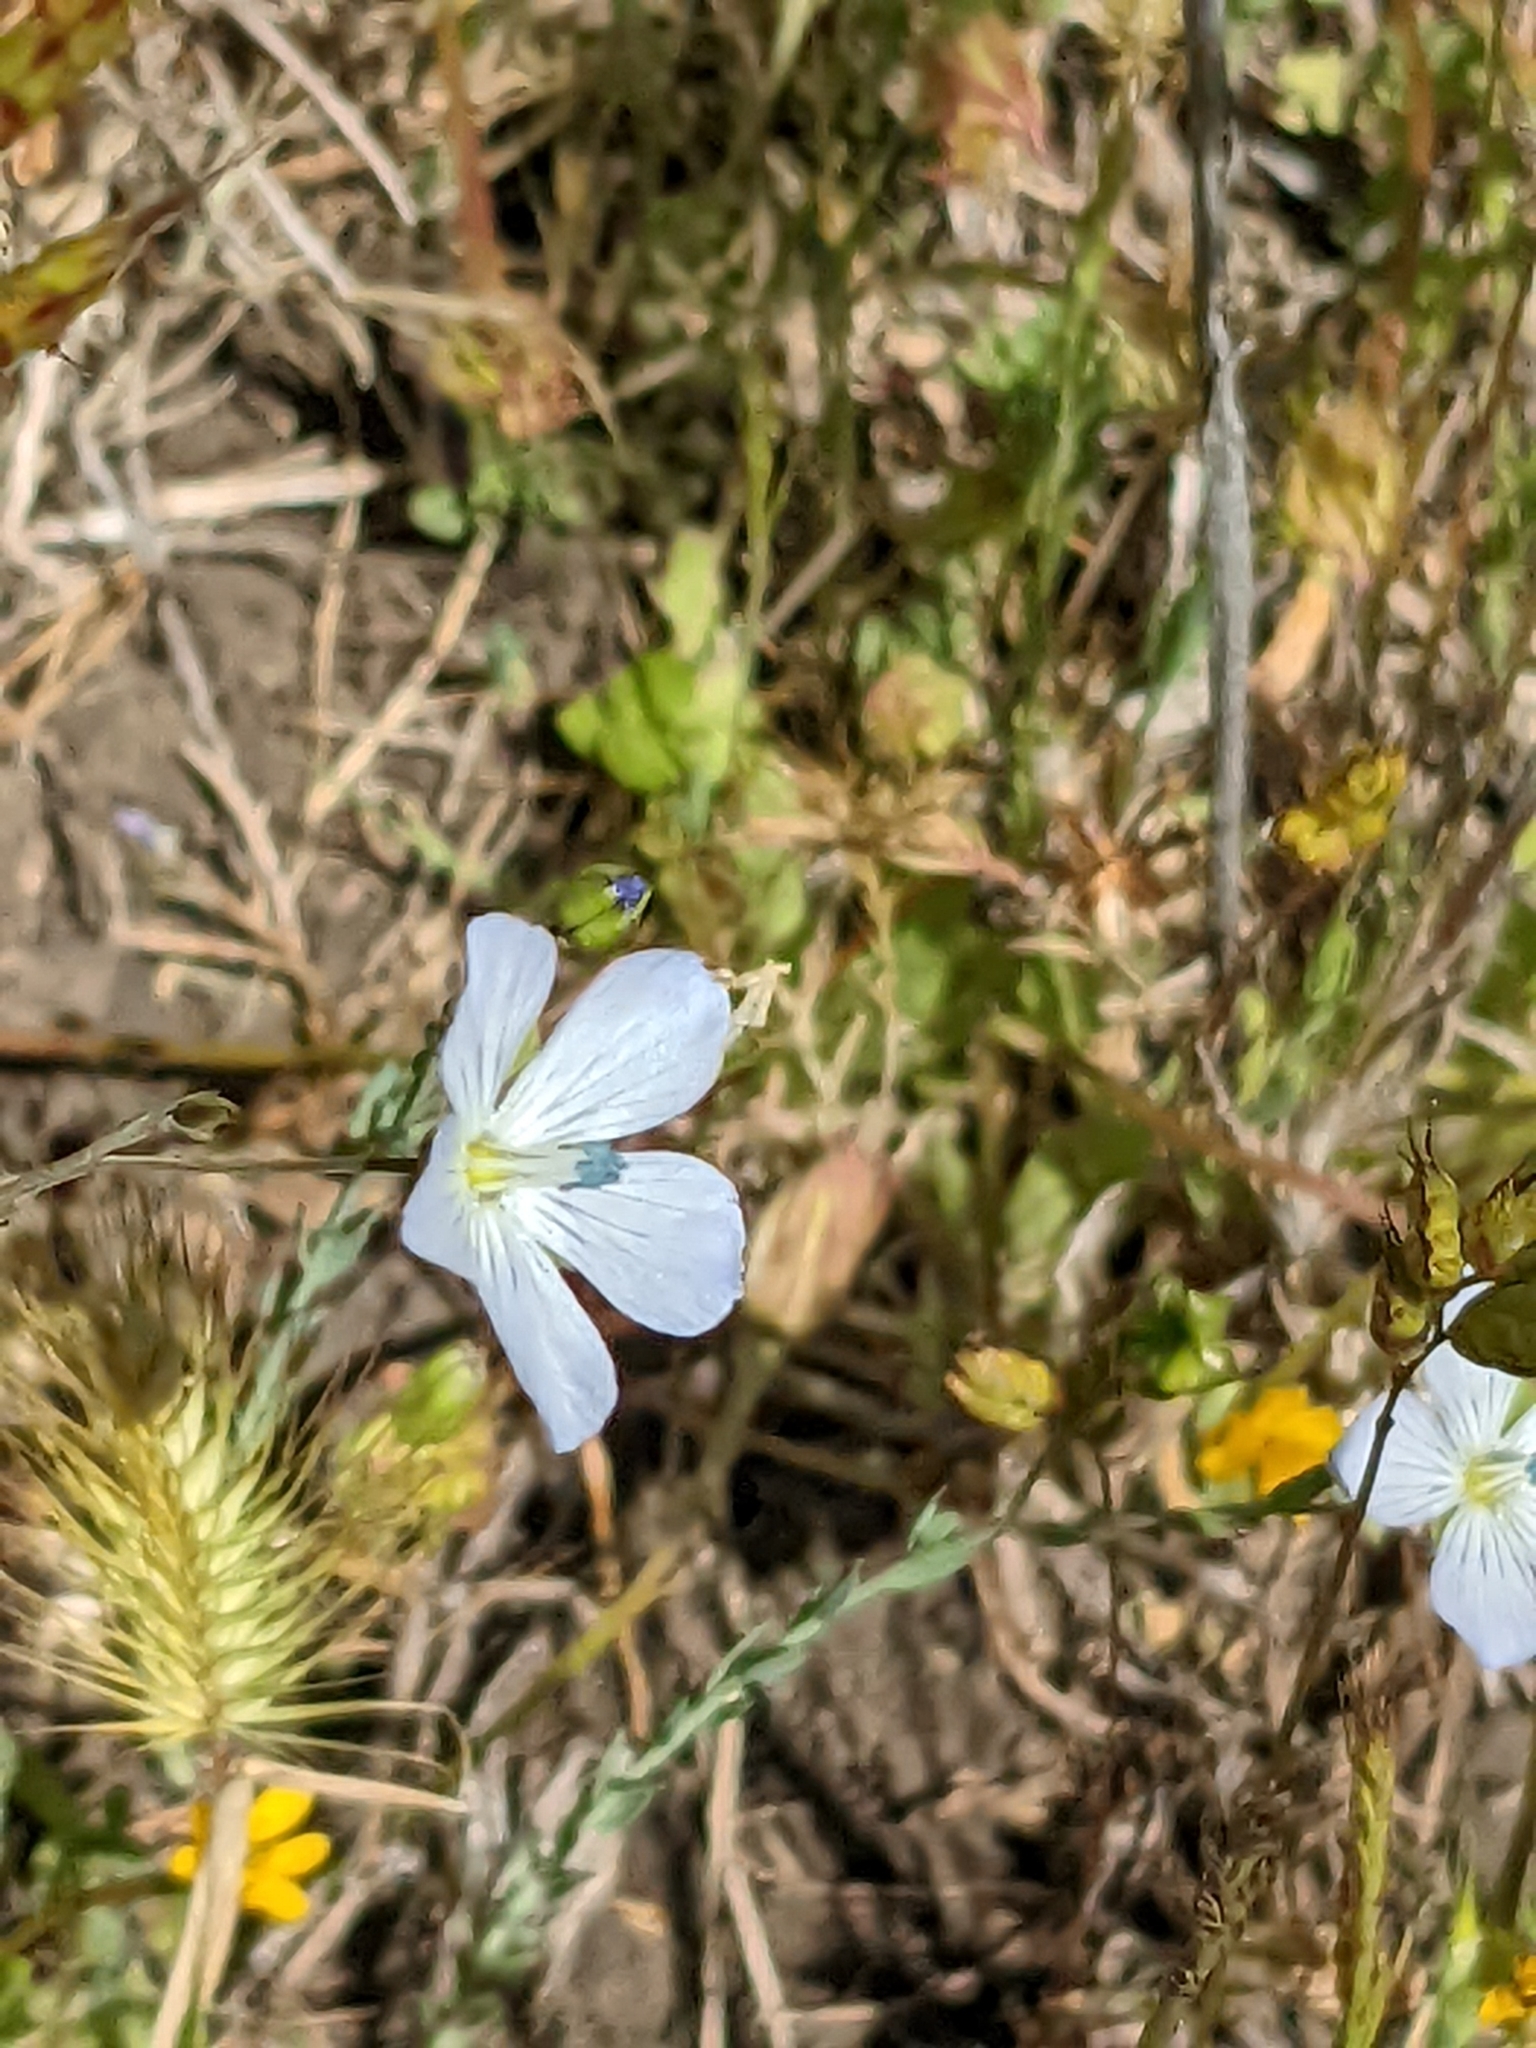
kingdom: Plantae
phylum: Tracheophyta
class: Magnoliopsida
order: Malpighiales
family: Linaceae
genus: Linum
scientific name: Linum bienne
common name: Pale flax
